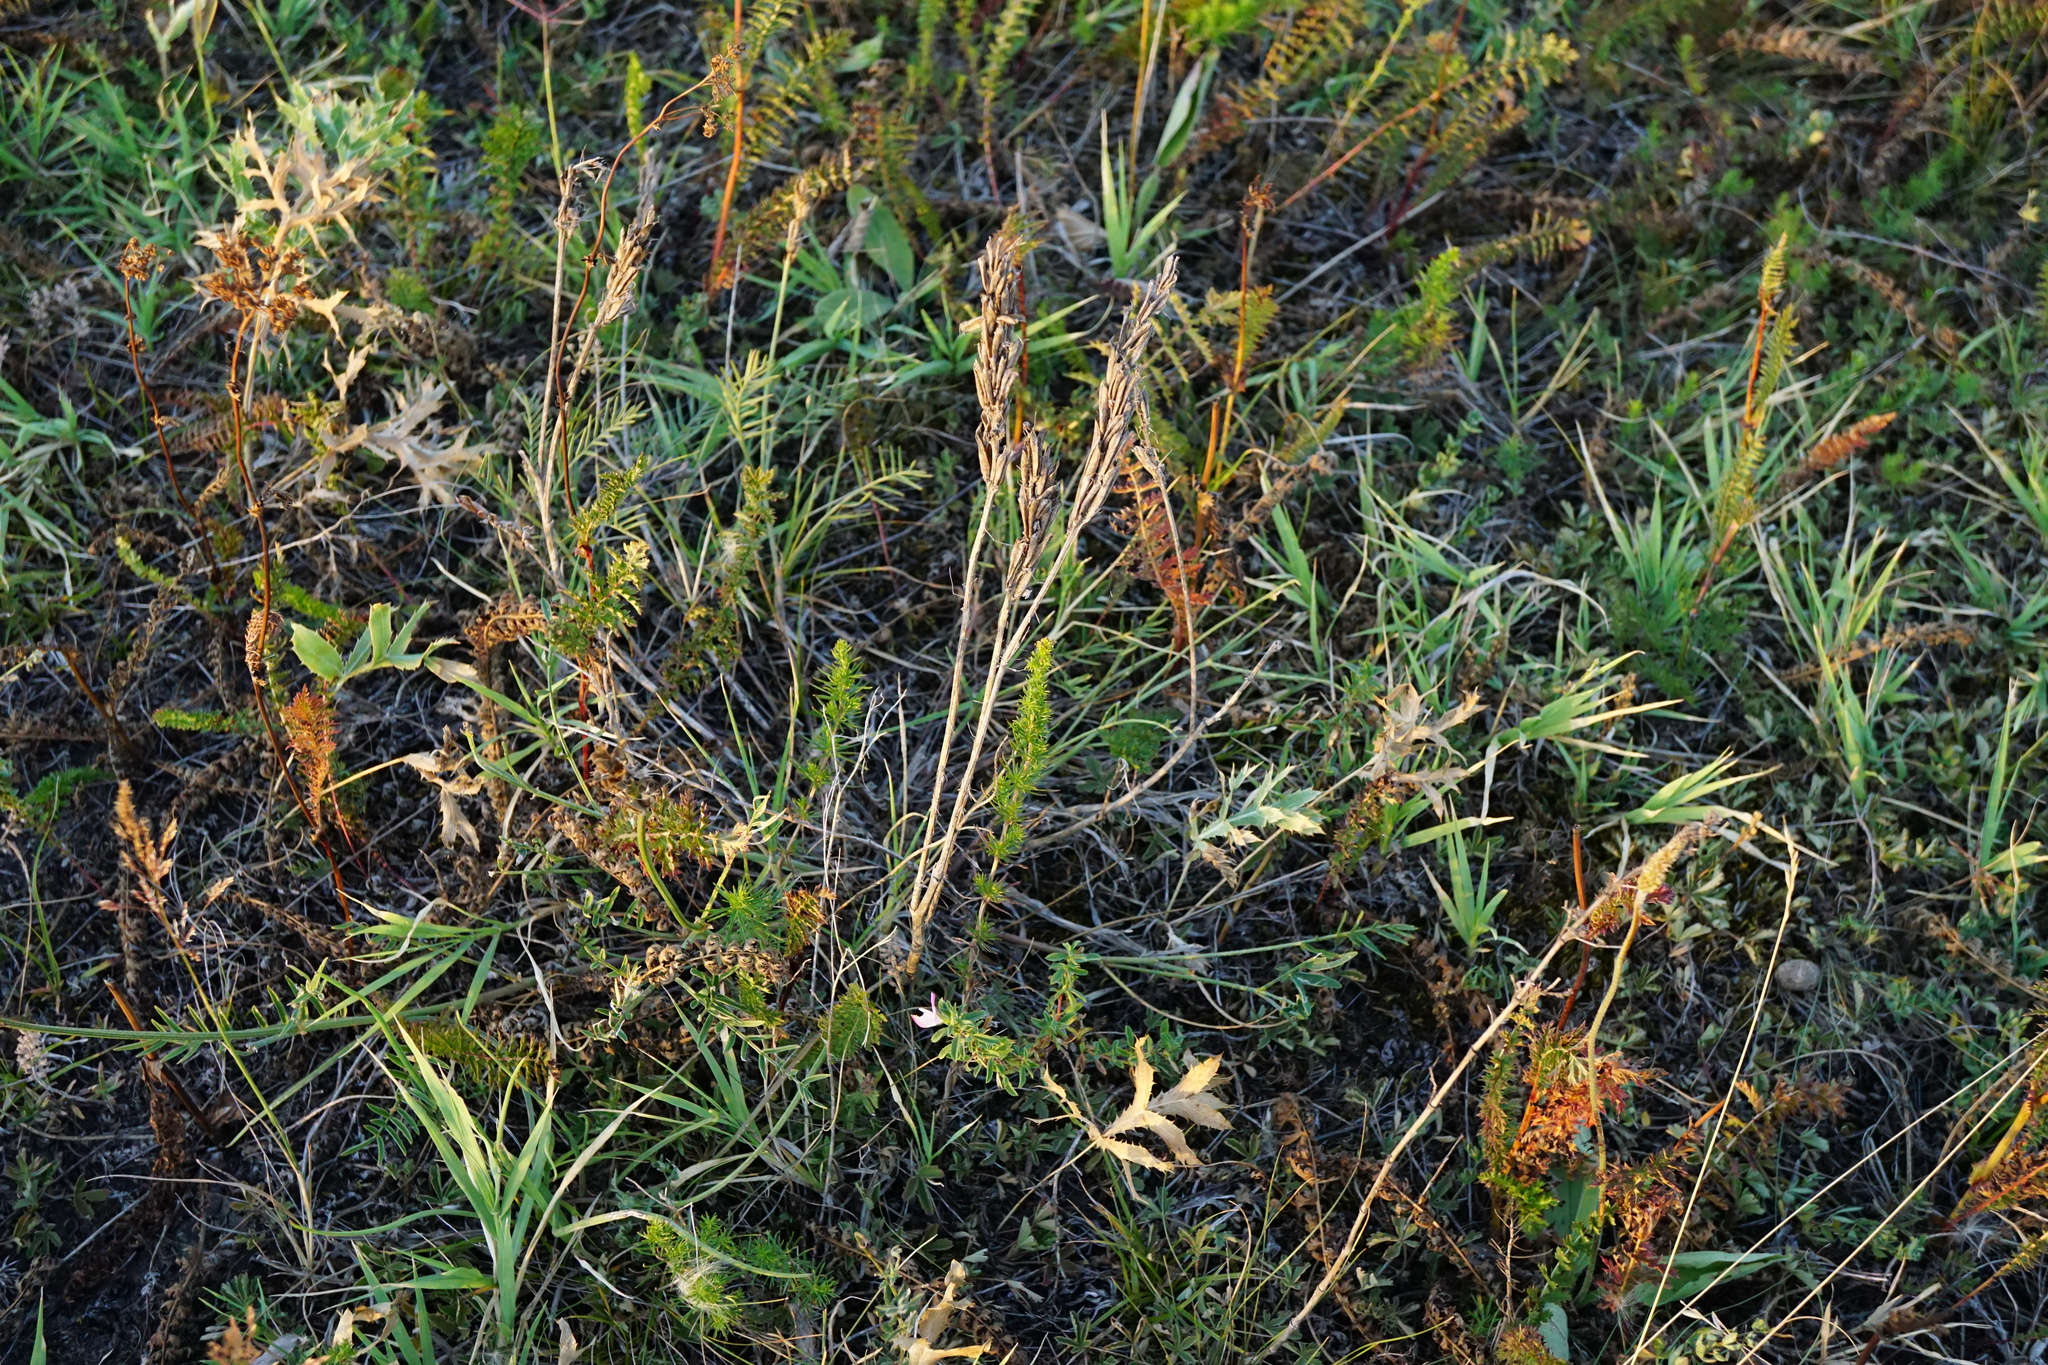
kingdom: Plantae
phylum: Tracheophyta
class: Magnoliopsida
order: Fabales
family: Fabaceae
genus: Astragalus
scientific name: Astragalus asper
